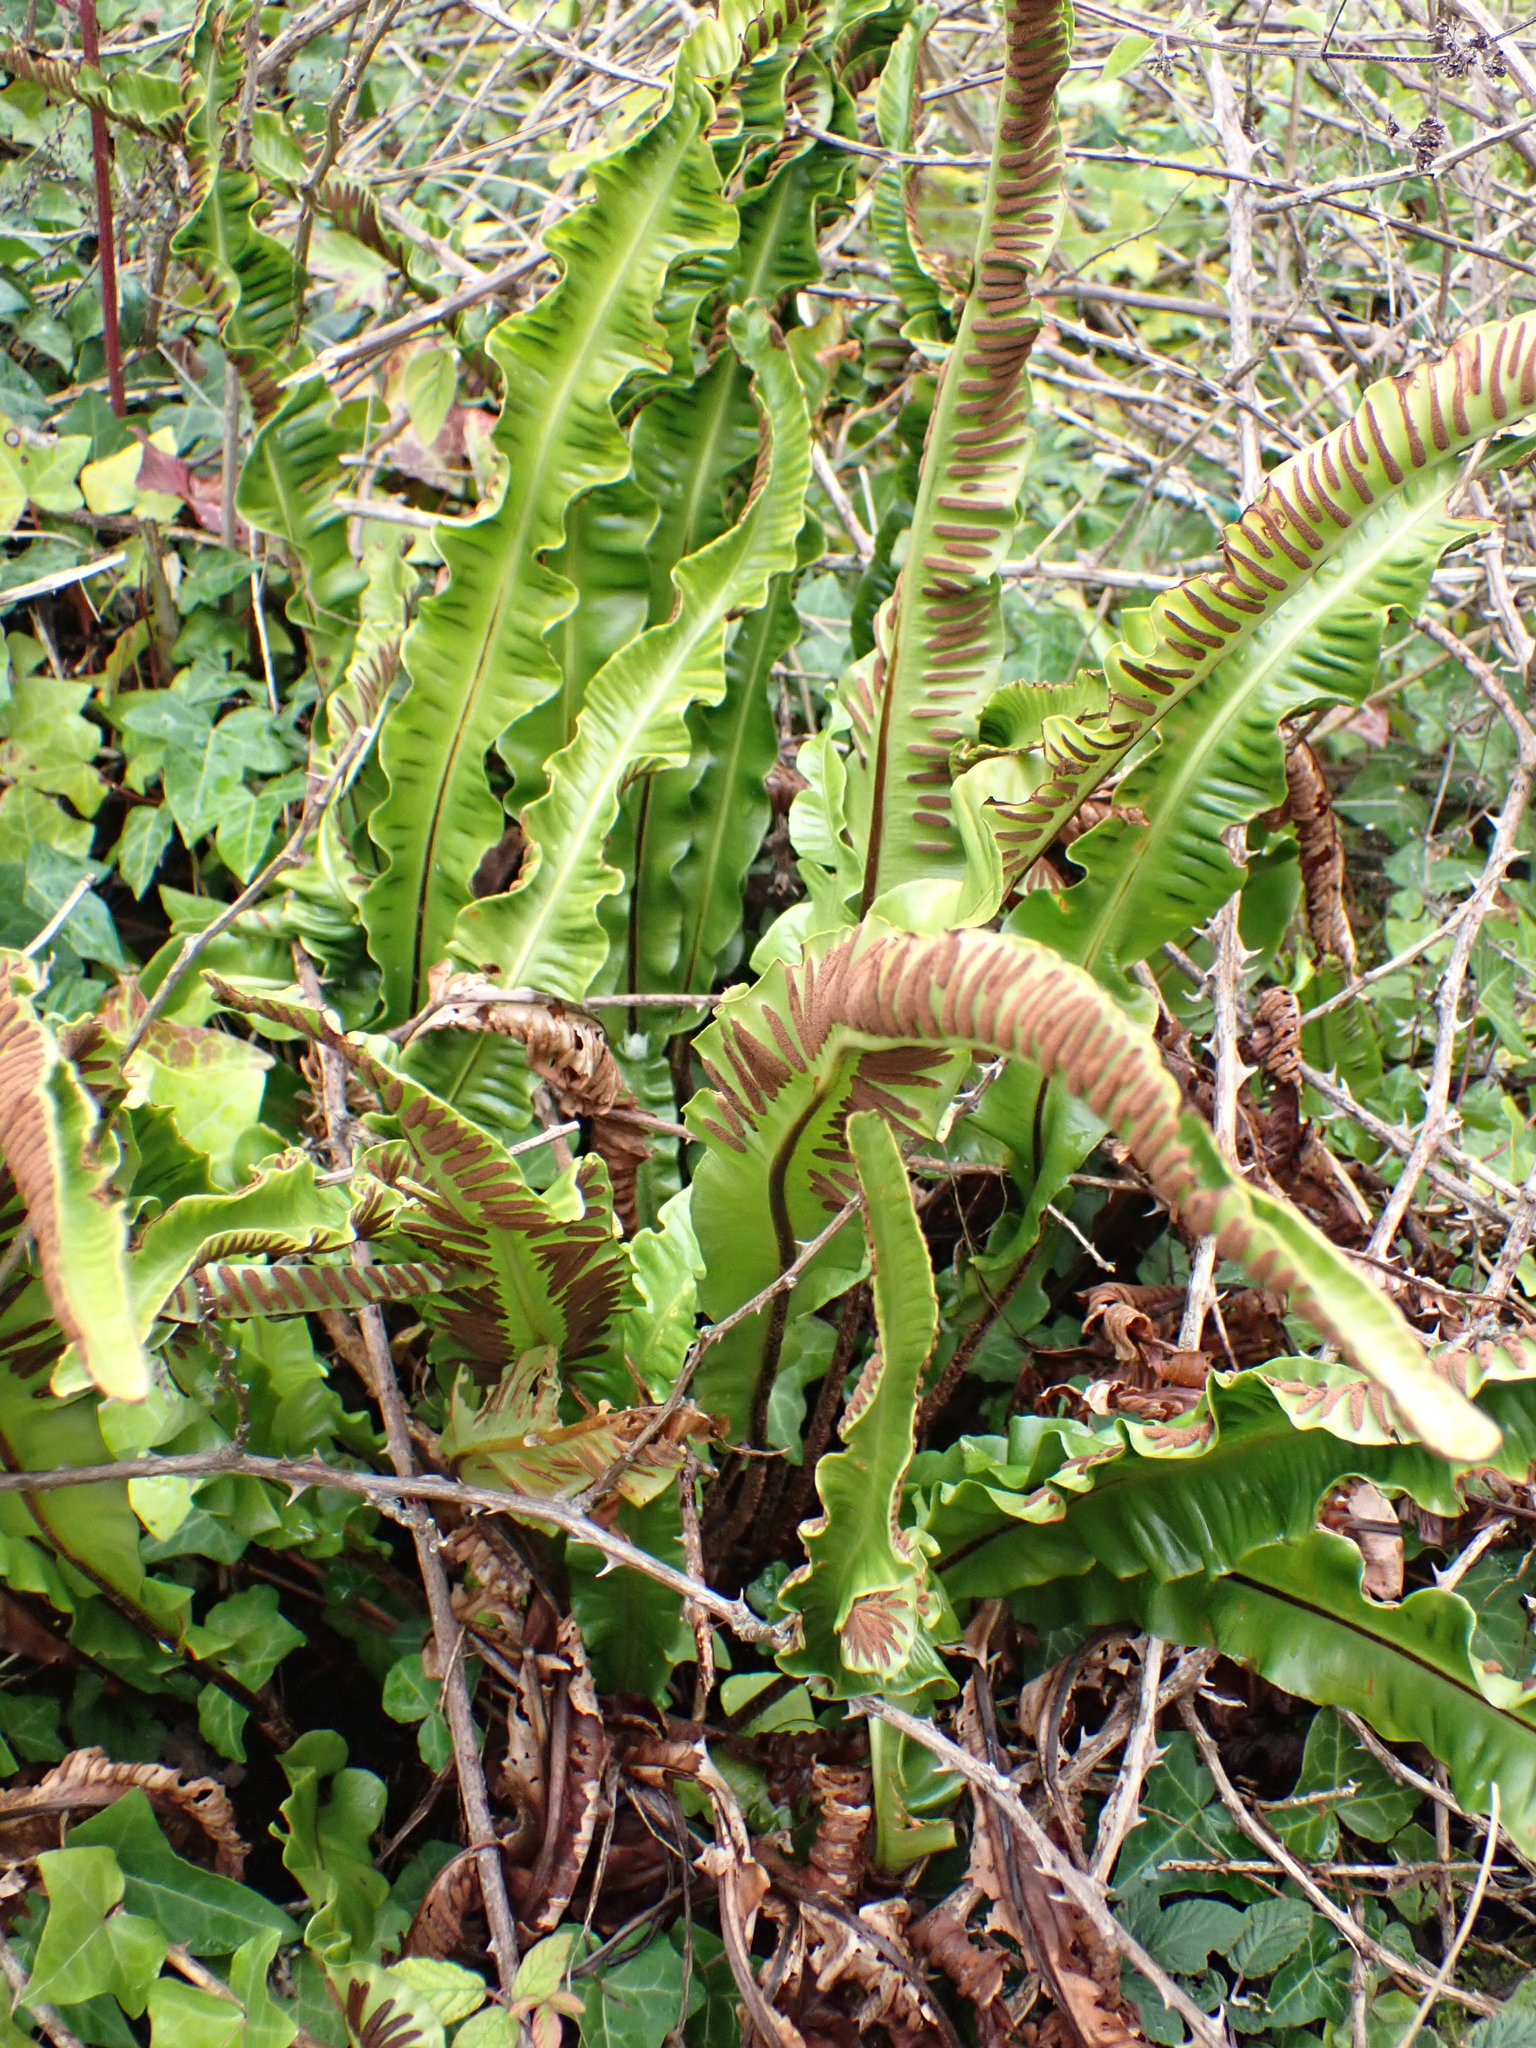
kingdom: Plantae
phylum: Tracheophyta
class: Polypodiopsida
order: Polypodiales
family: Aspleniaceae
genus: Asplenium
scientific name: Asplenium scolopendrium
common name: Hart's-tongue fern
